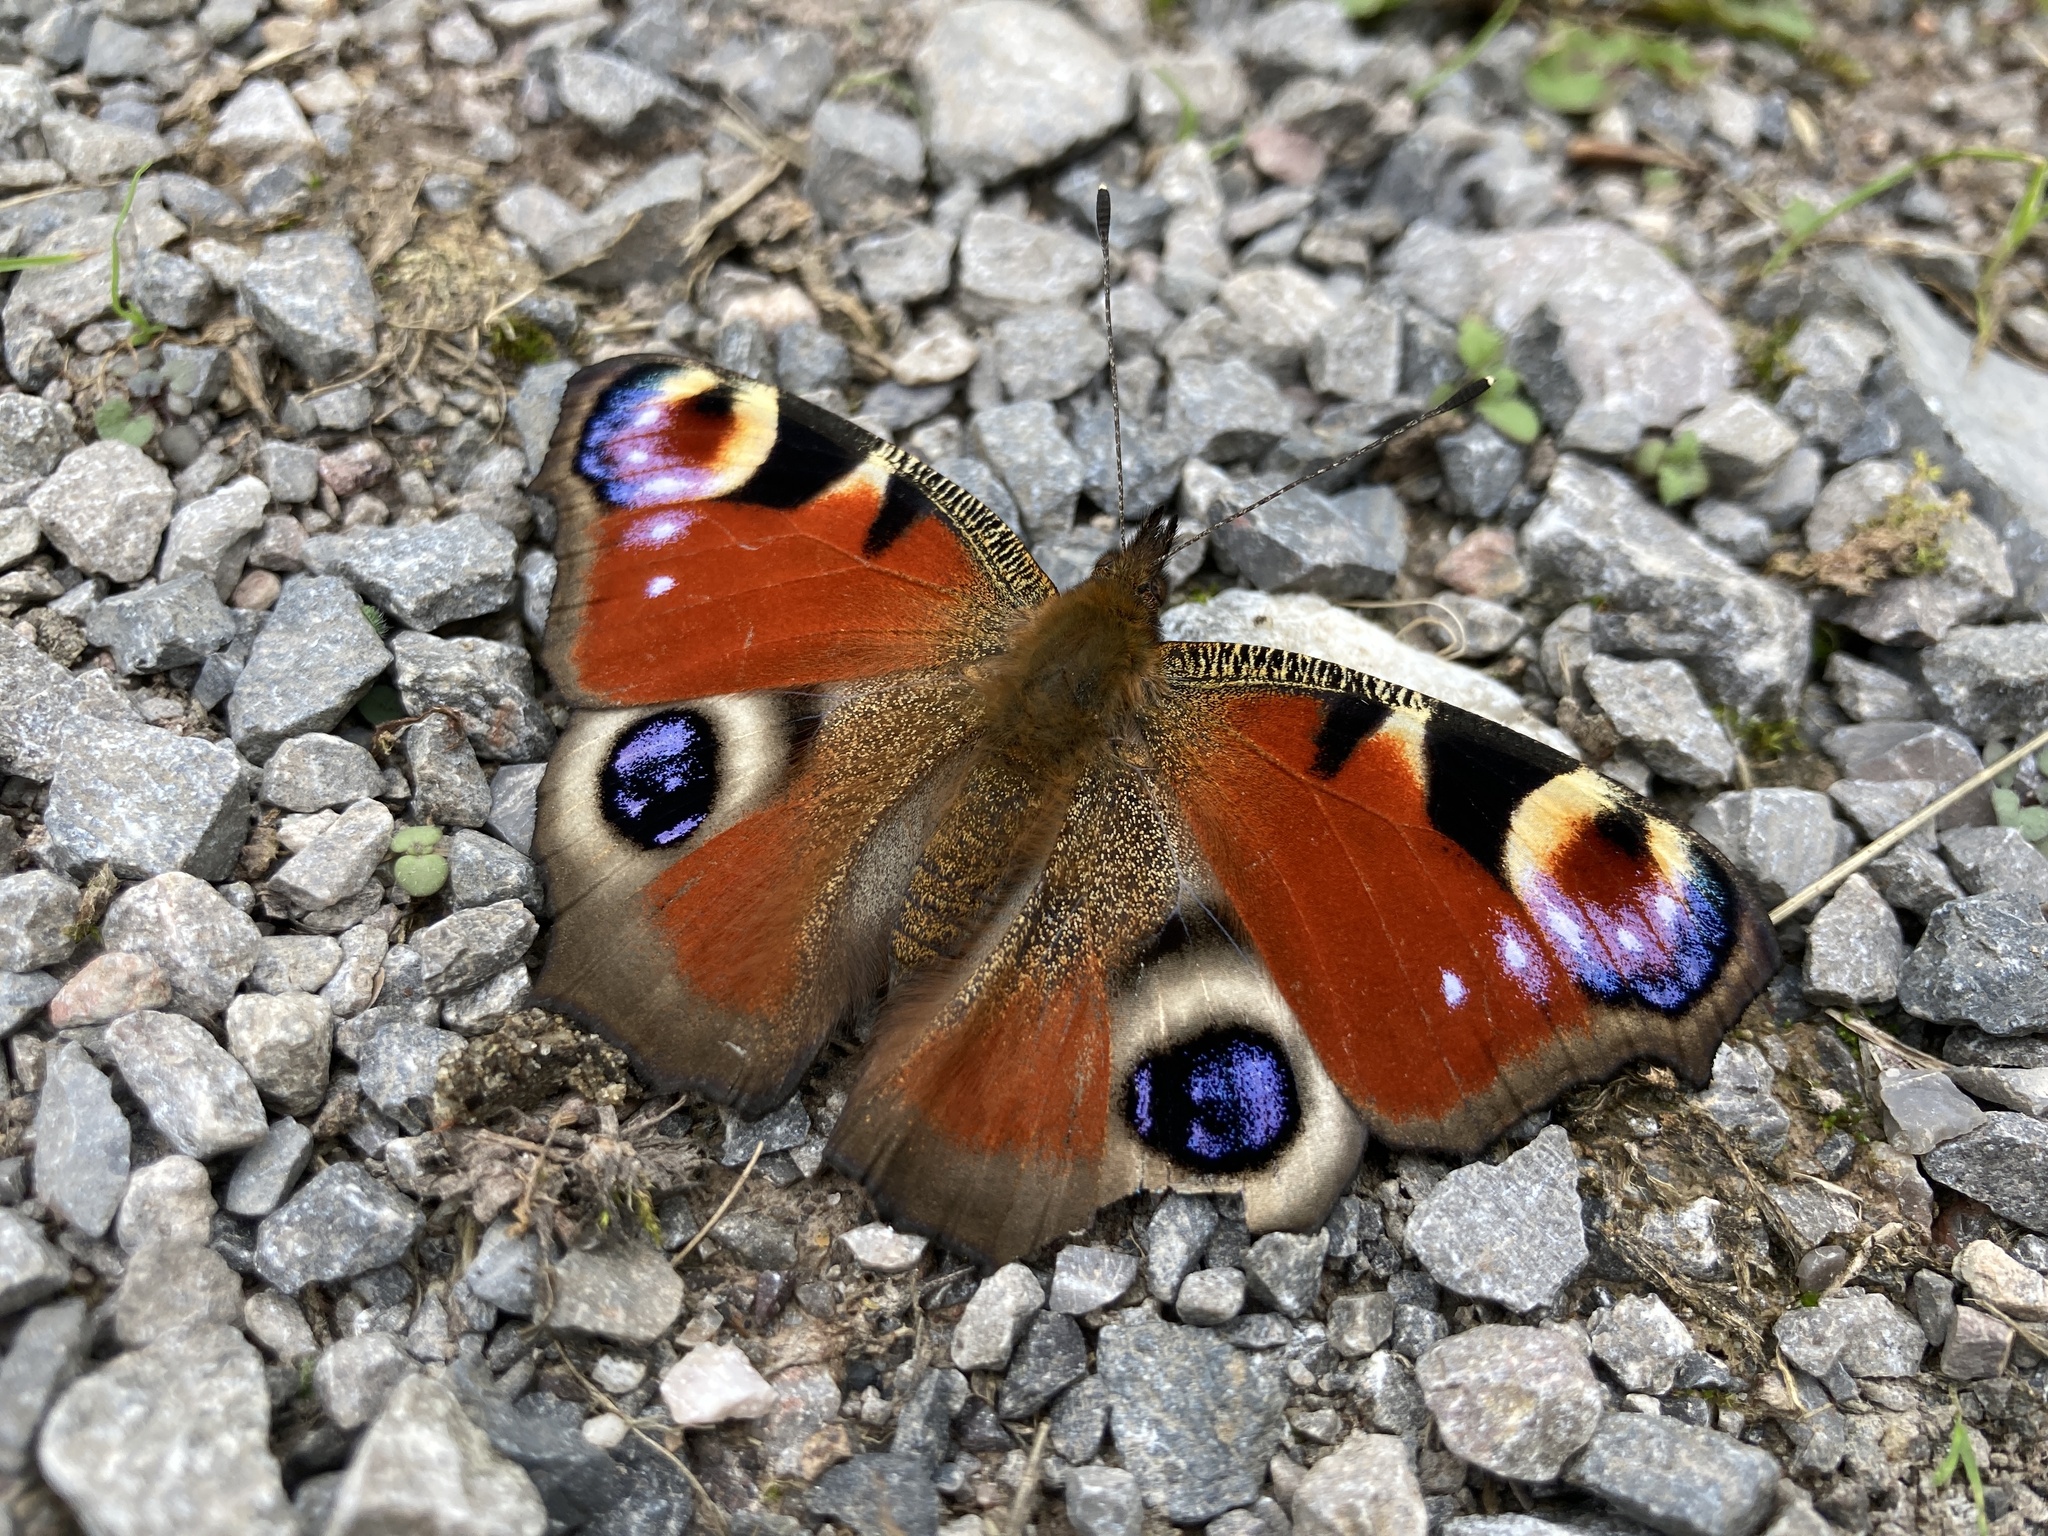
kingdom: Animalia
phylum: Arthropoda
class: Insecta
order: Lepidoptera
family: Nymphalidae
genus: Aglais
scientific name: Aglais io
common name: Peacock
